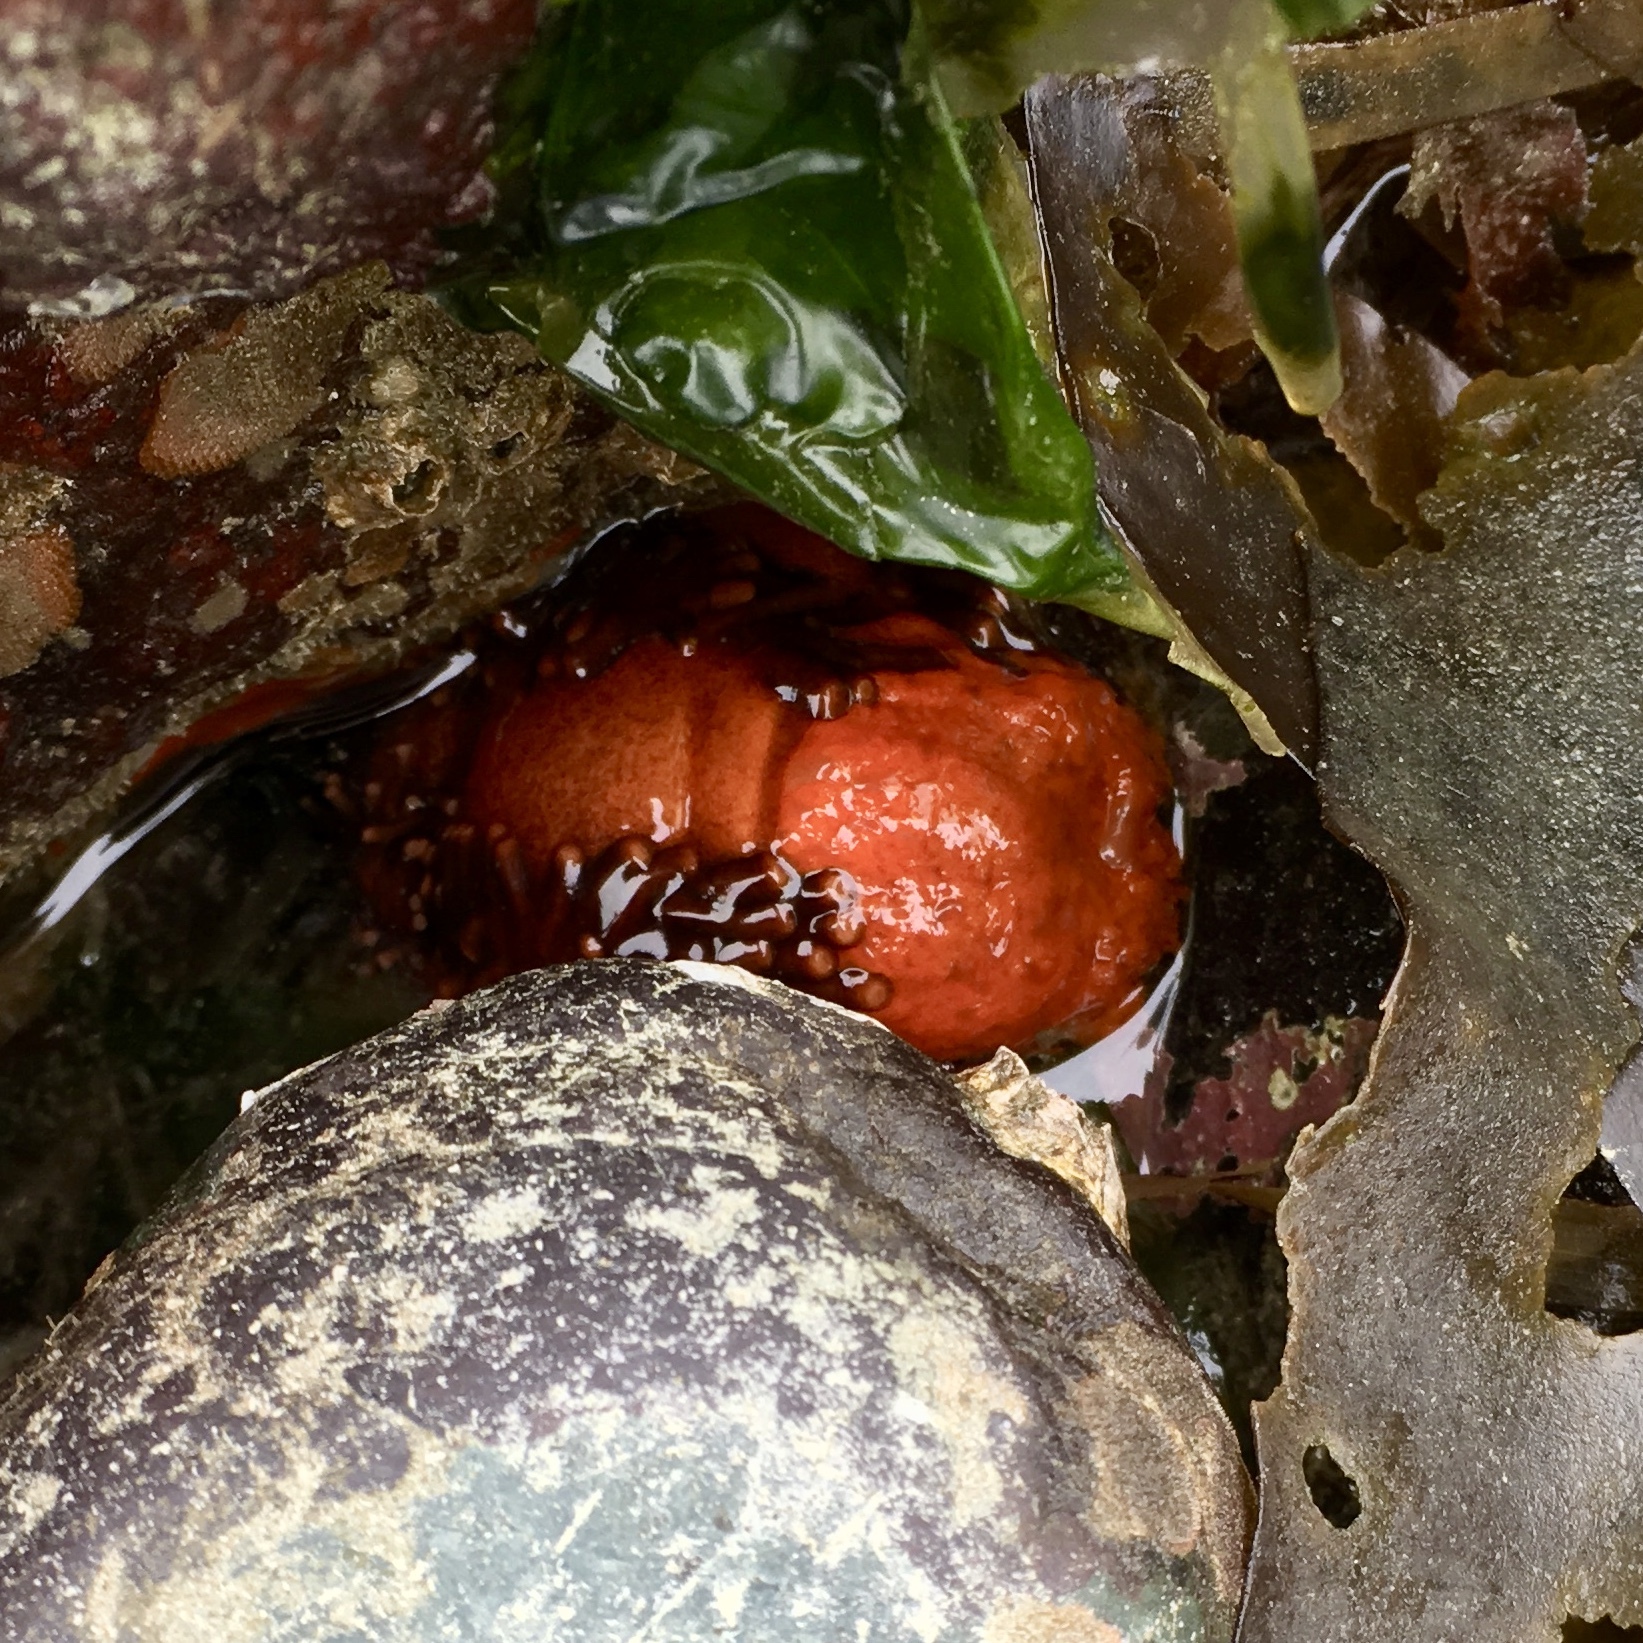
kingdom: Animalia
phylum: Echinodermata
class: Holothuroidea
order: Dendrochirotida
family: Cucumariidae
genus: Cucumaria
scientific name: Cucumaria miniata
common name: Orange sea cucumber
